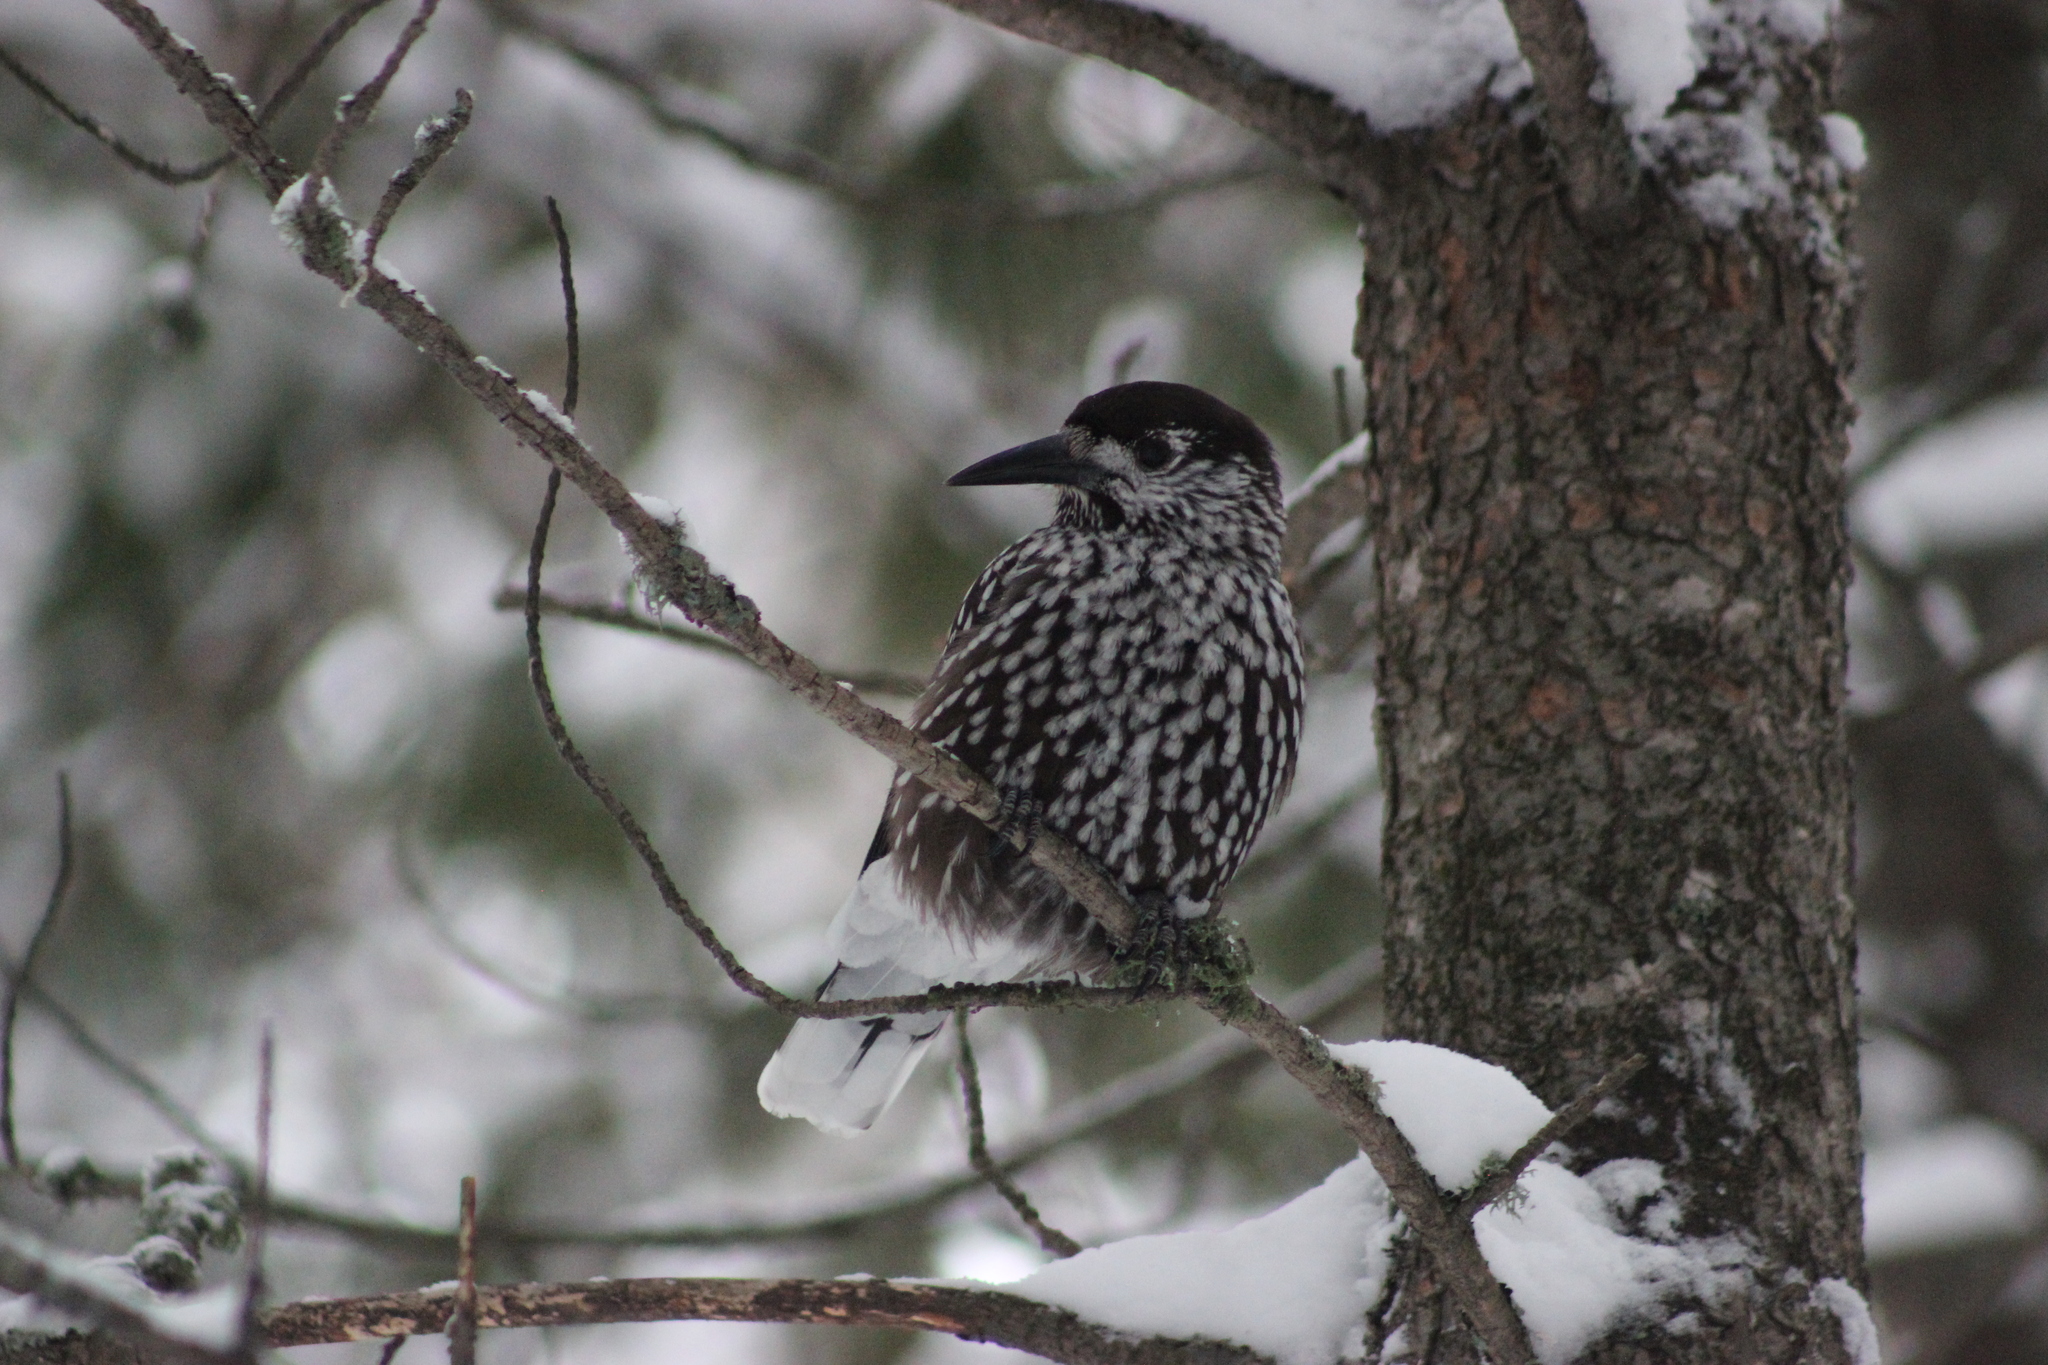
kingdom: Animalia
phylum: Chordata
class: Aves
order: Passeriformes
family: Corvidae
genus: Nucifraga
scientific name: Nucifraga caryocatactes
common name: Spotted nutcracker
